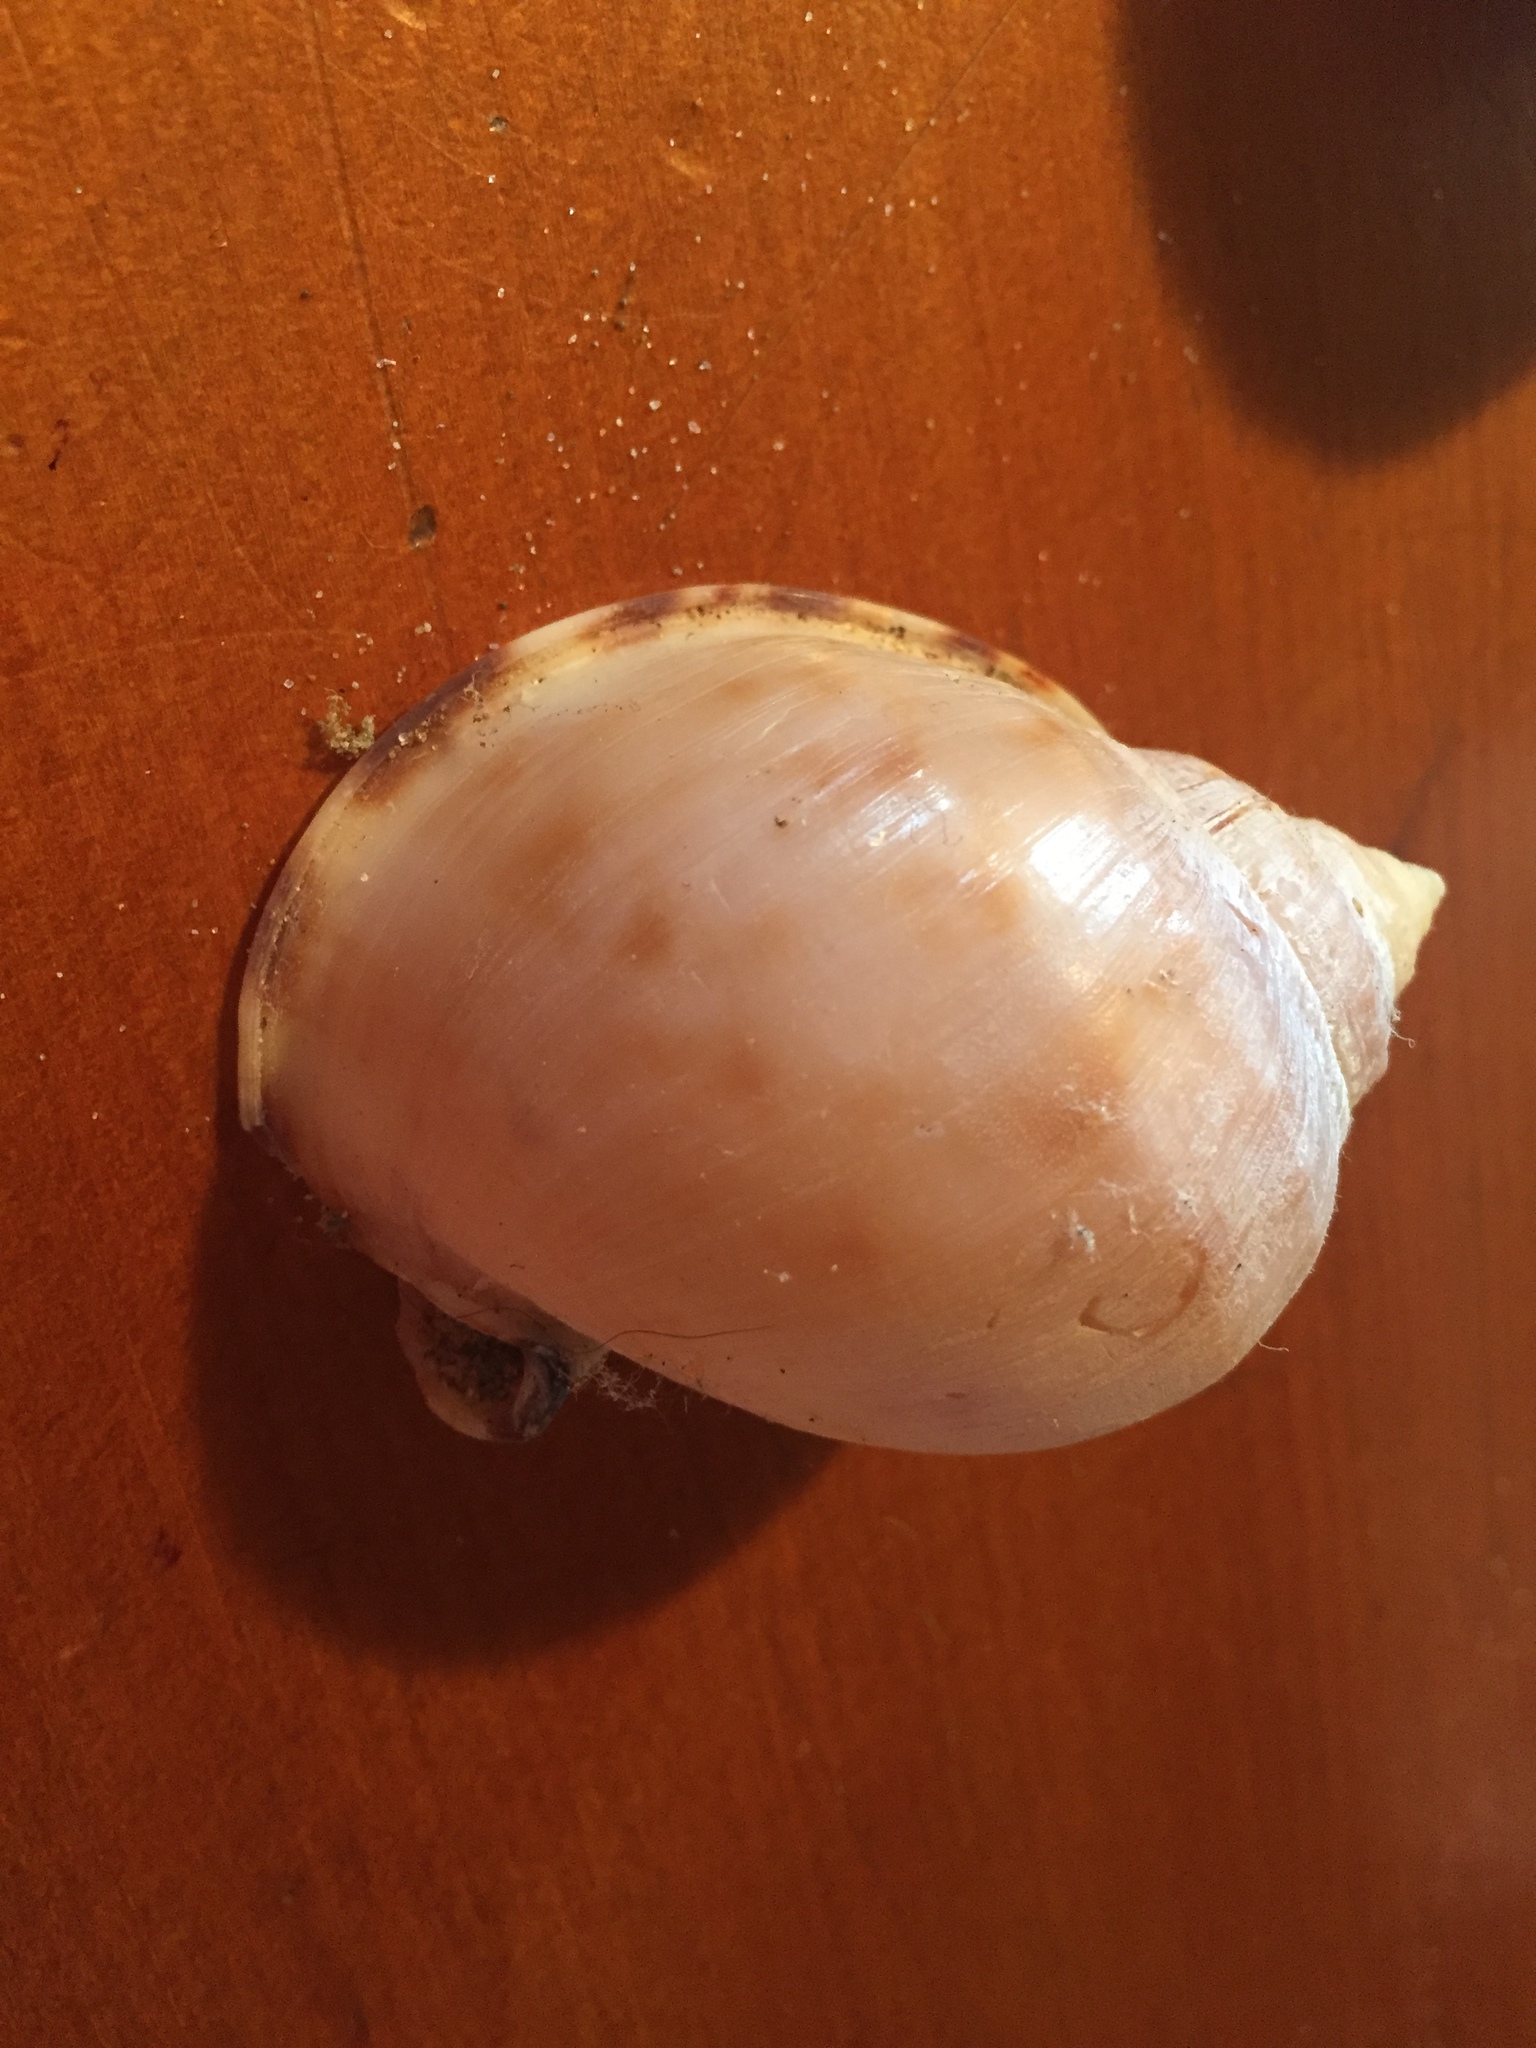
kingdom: Animalia
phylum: Mollusca
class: Gastropoda
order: Littorinimorpha
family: Cassidae
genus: Semicassis
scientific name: Semicassis pyrum
